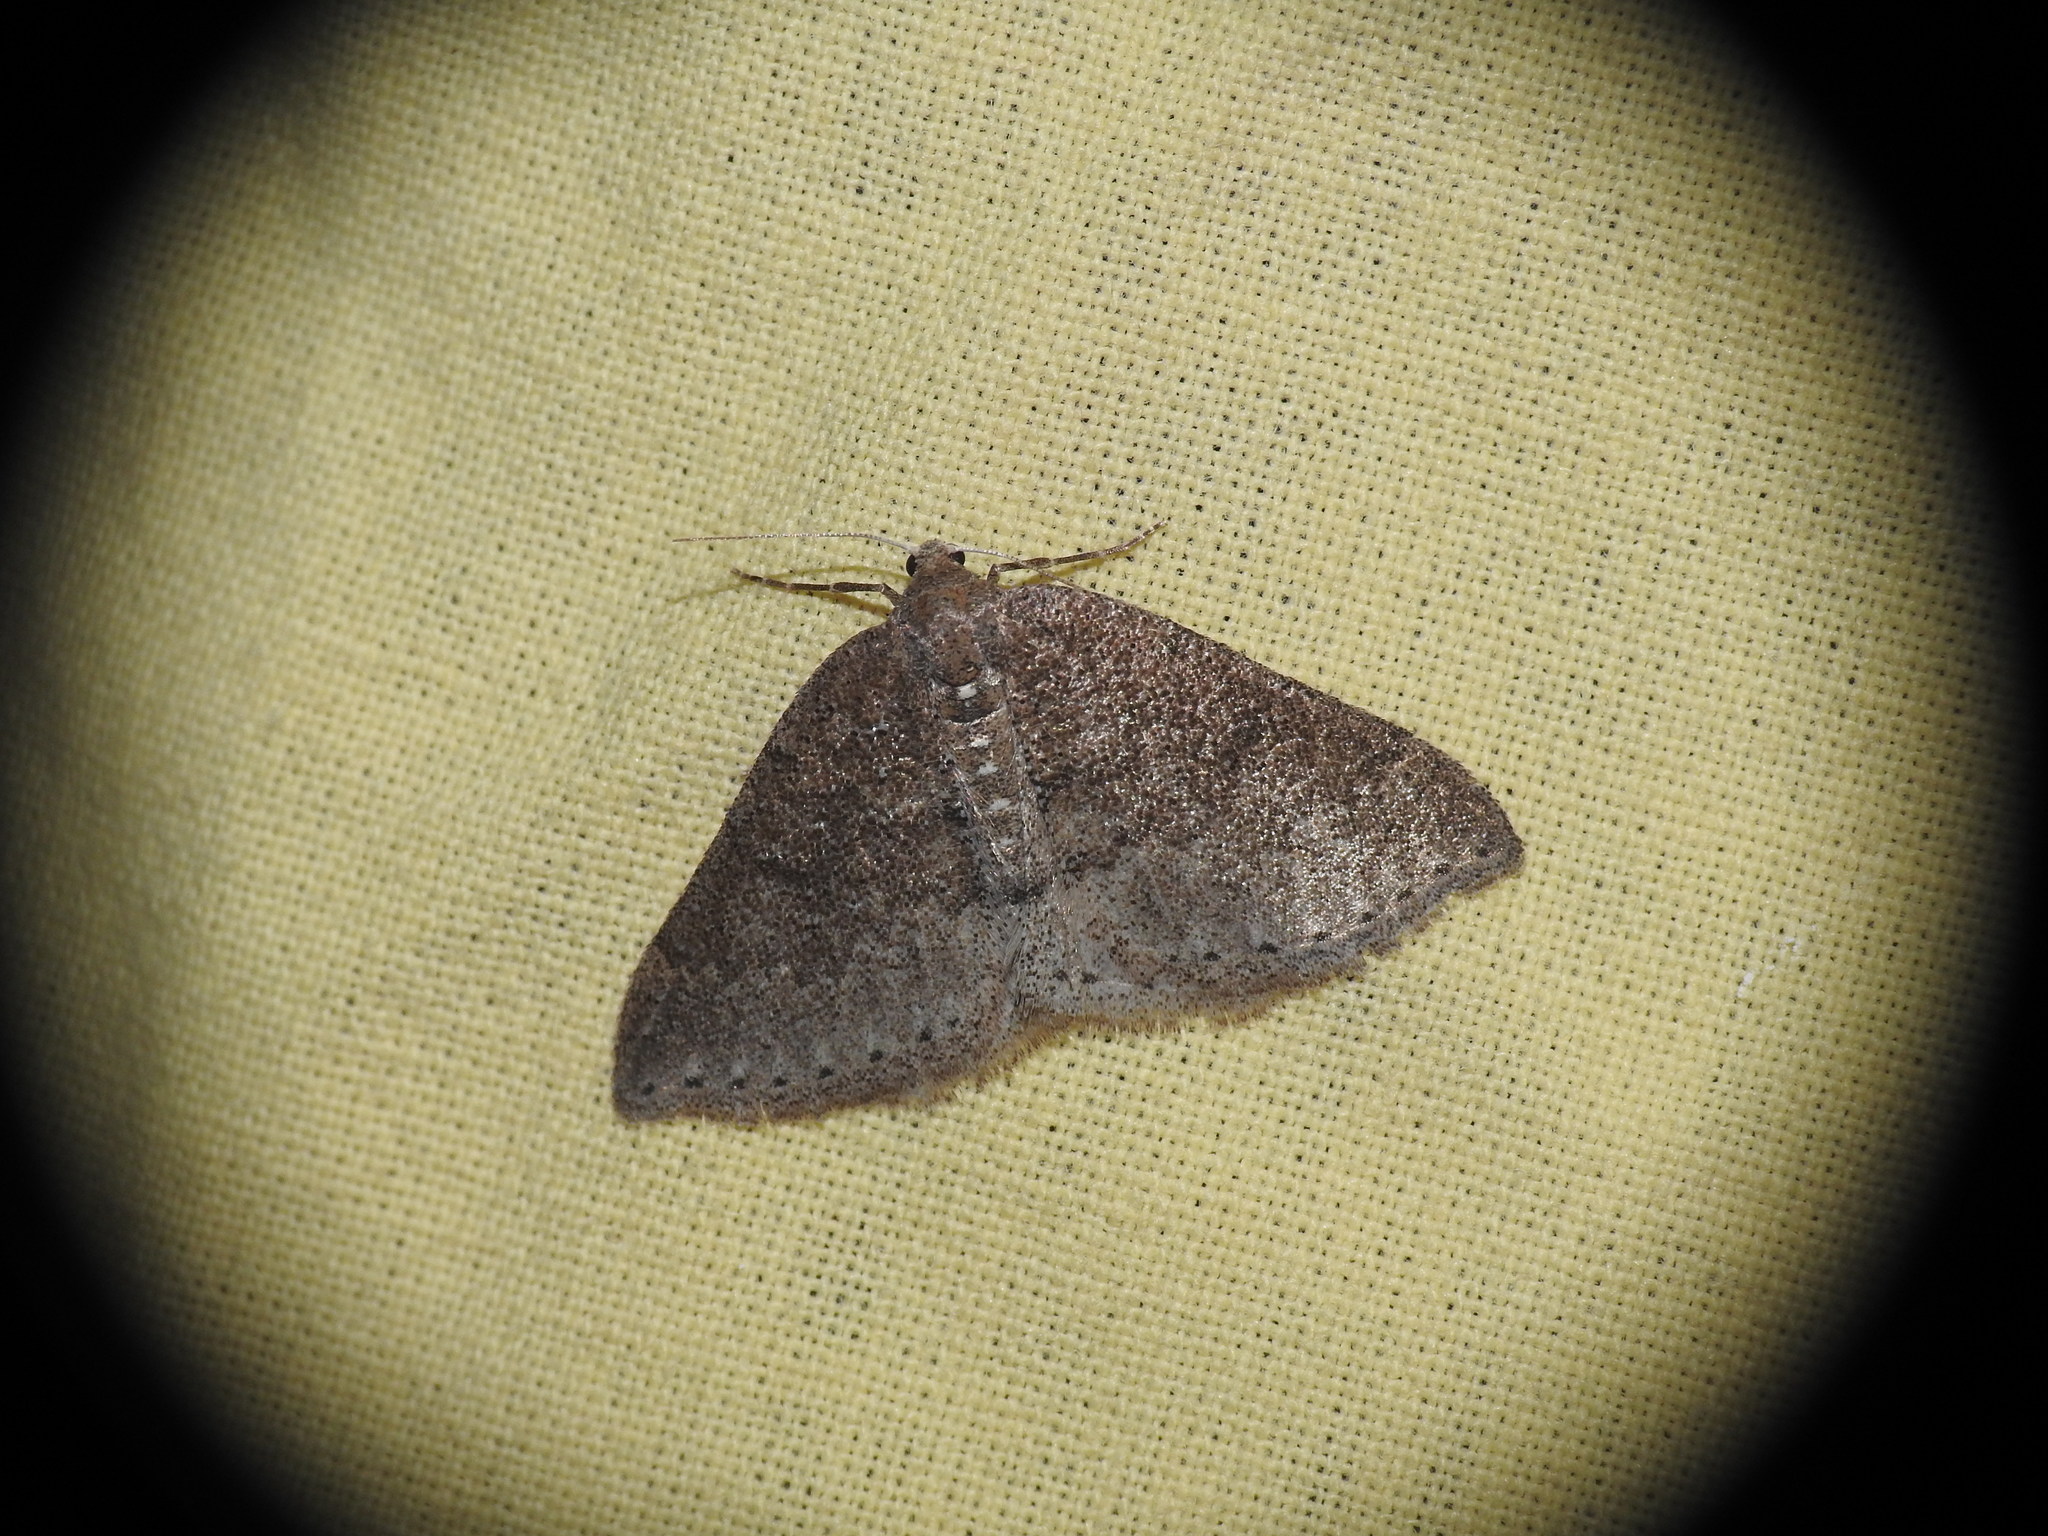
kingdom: Animalia
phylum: Arthropoda
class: Insecta
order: Lepidoptera
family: Geometridae
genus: Aleucis
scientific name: Aleucis distinctata
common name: Sloe carpet
